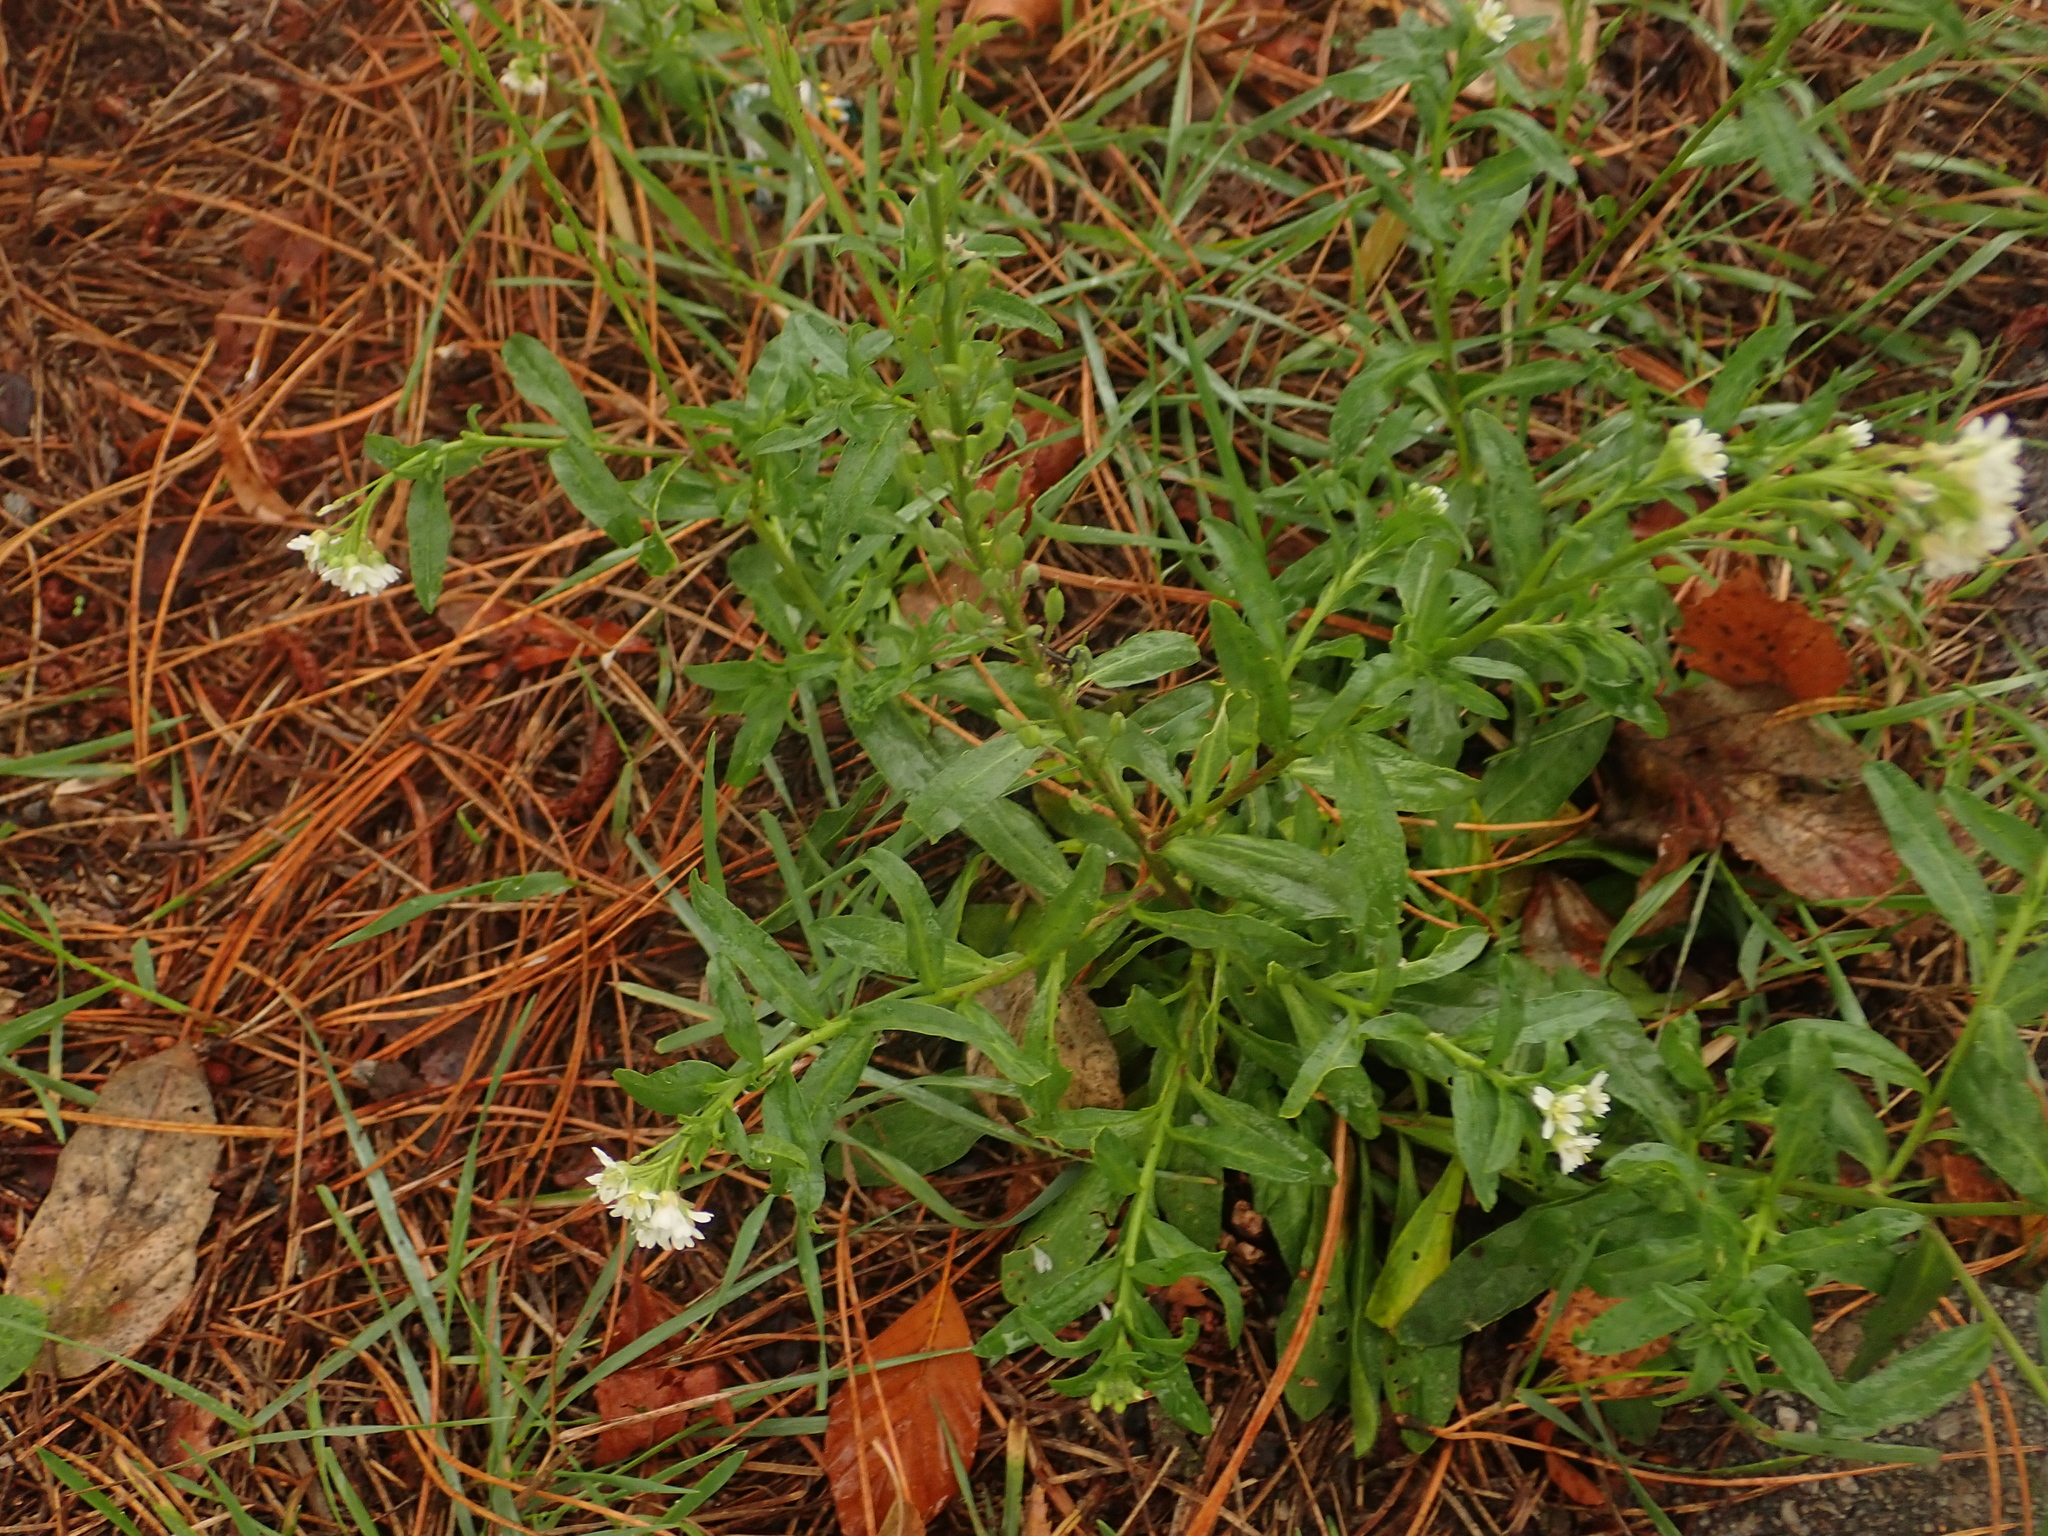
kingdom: Plantae
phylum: Tracheophyta
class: Magnoliopsida
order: Brassicales
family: Brassicaceae
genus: Berteroa
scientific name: Berteroa incana
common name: Hoary alison
